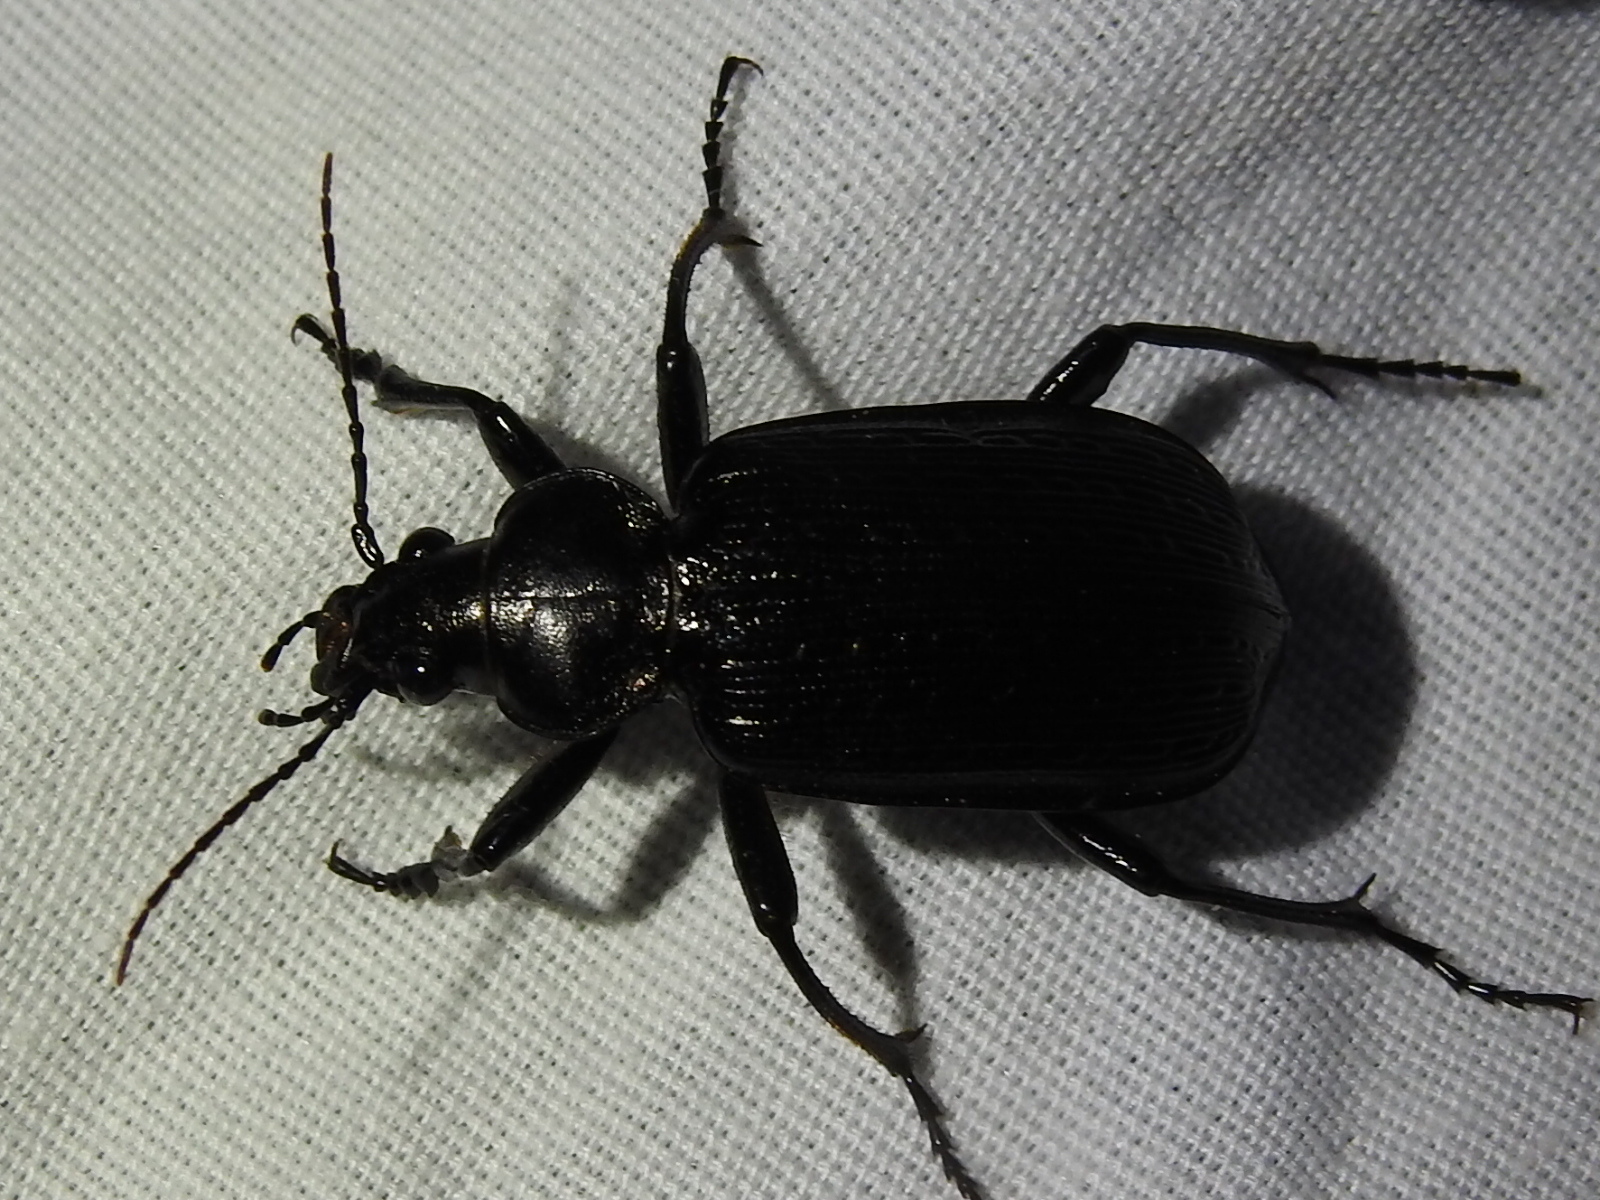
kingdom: Animalia
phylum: Arthropoda
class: Insecta
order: Coleoptera
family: Carabidae
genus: Calosoma
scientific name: Calosoma sayi
